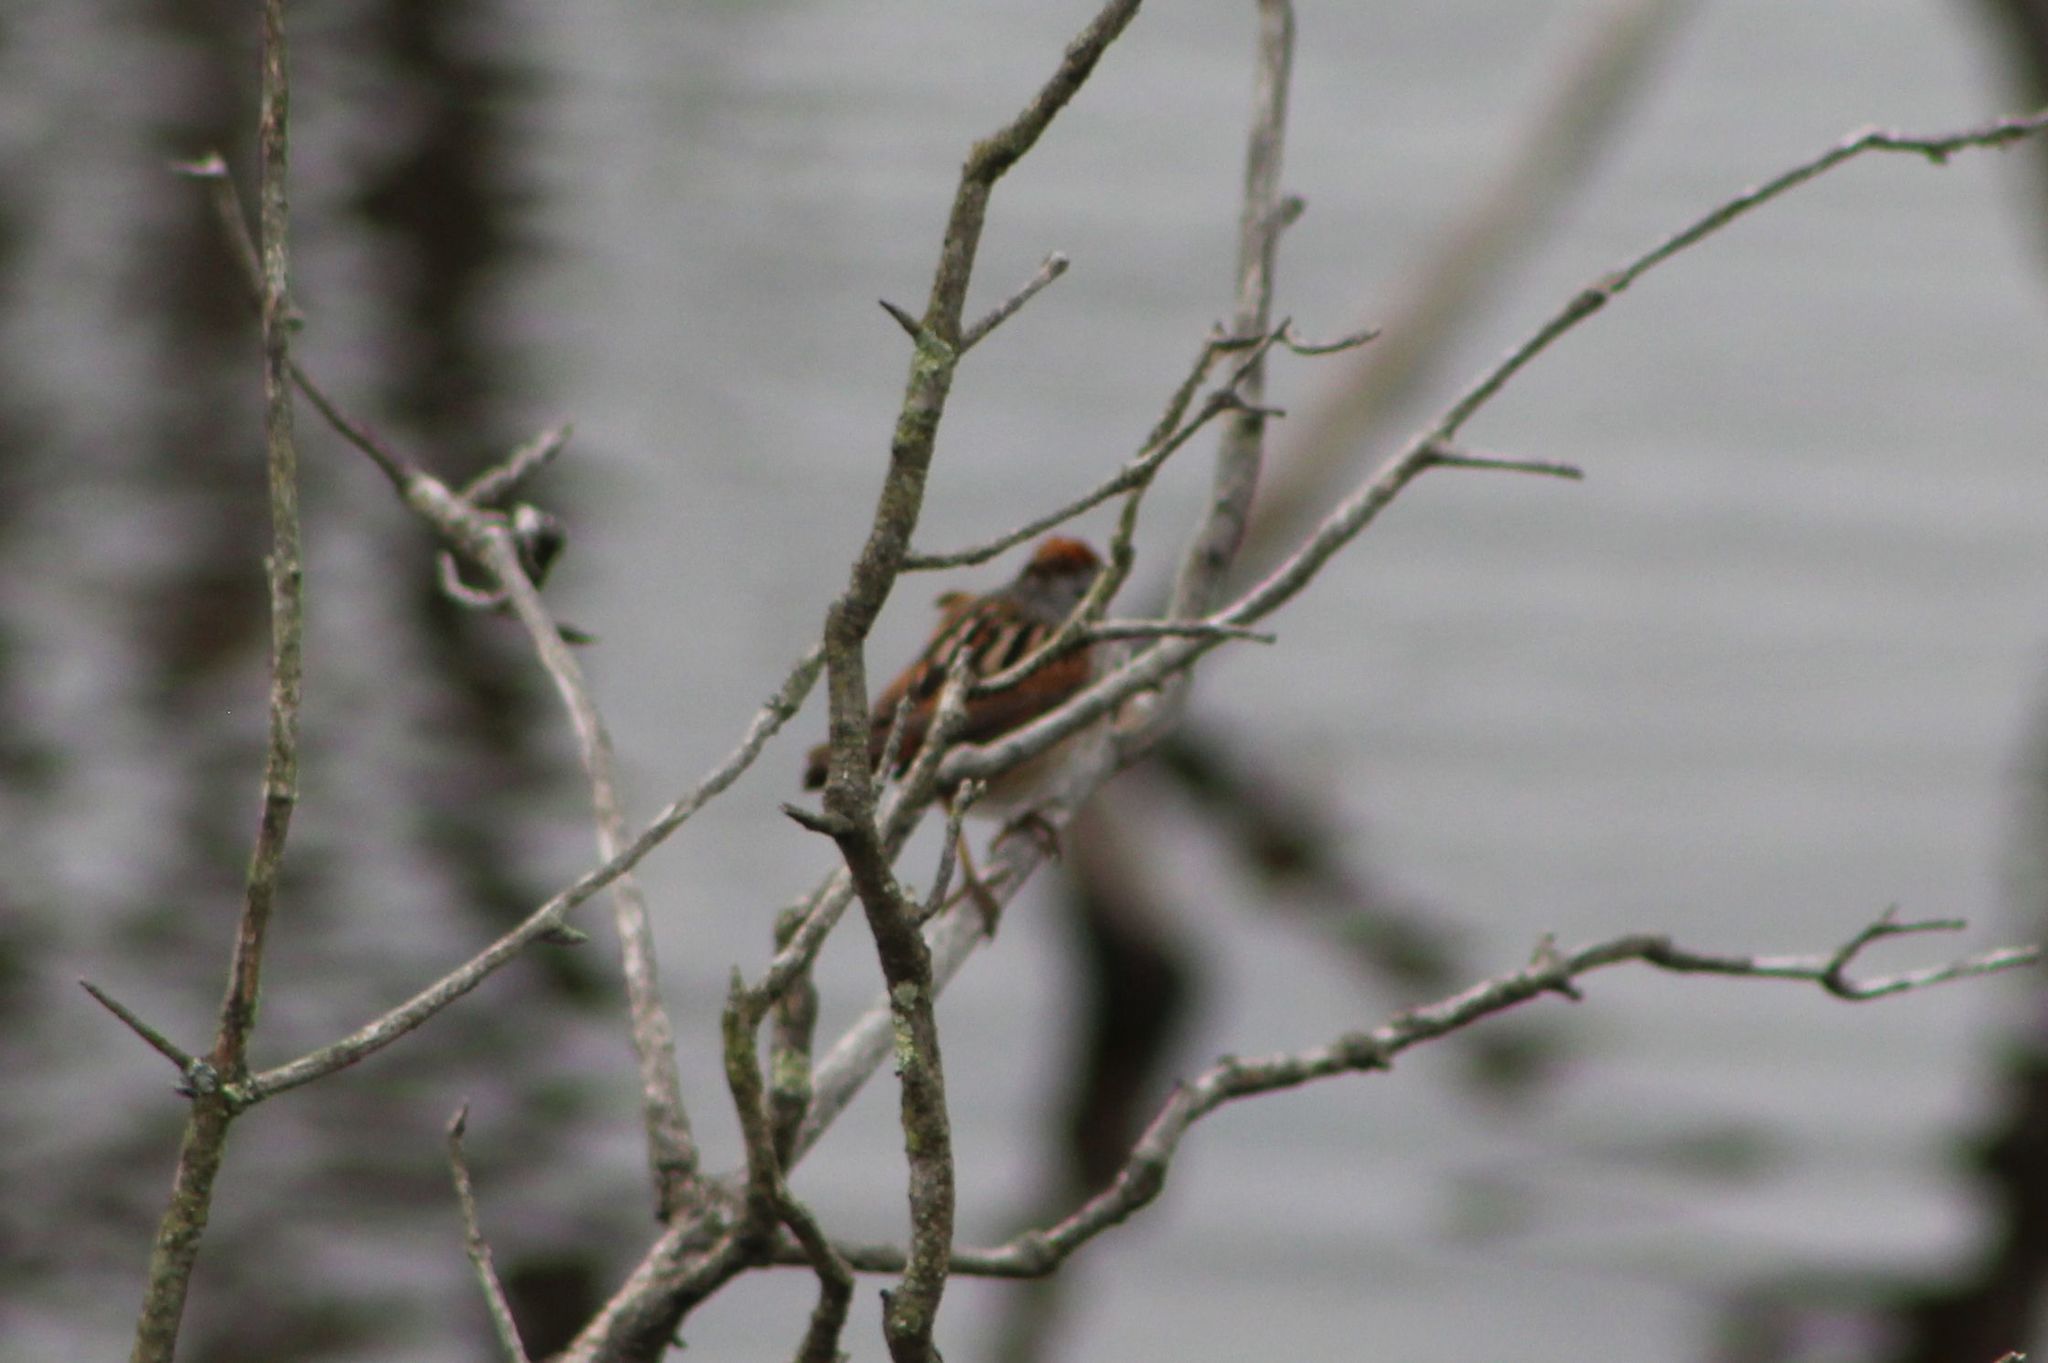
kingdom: Animalia
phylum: Chordata
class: Aves
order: Passeriformes
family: Passerellidae
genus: Melospiza
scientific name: Melospiza georgiana
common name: Swamp sparrow
